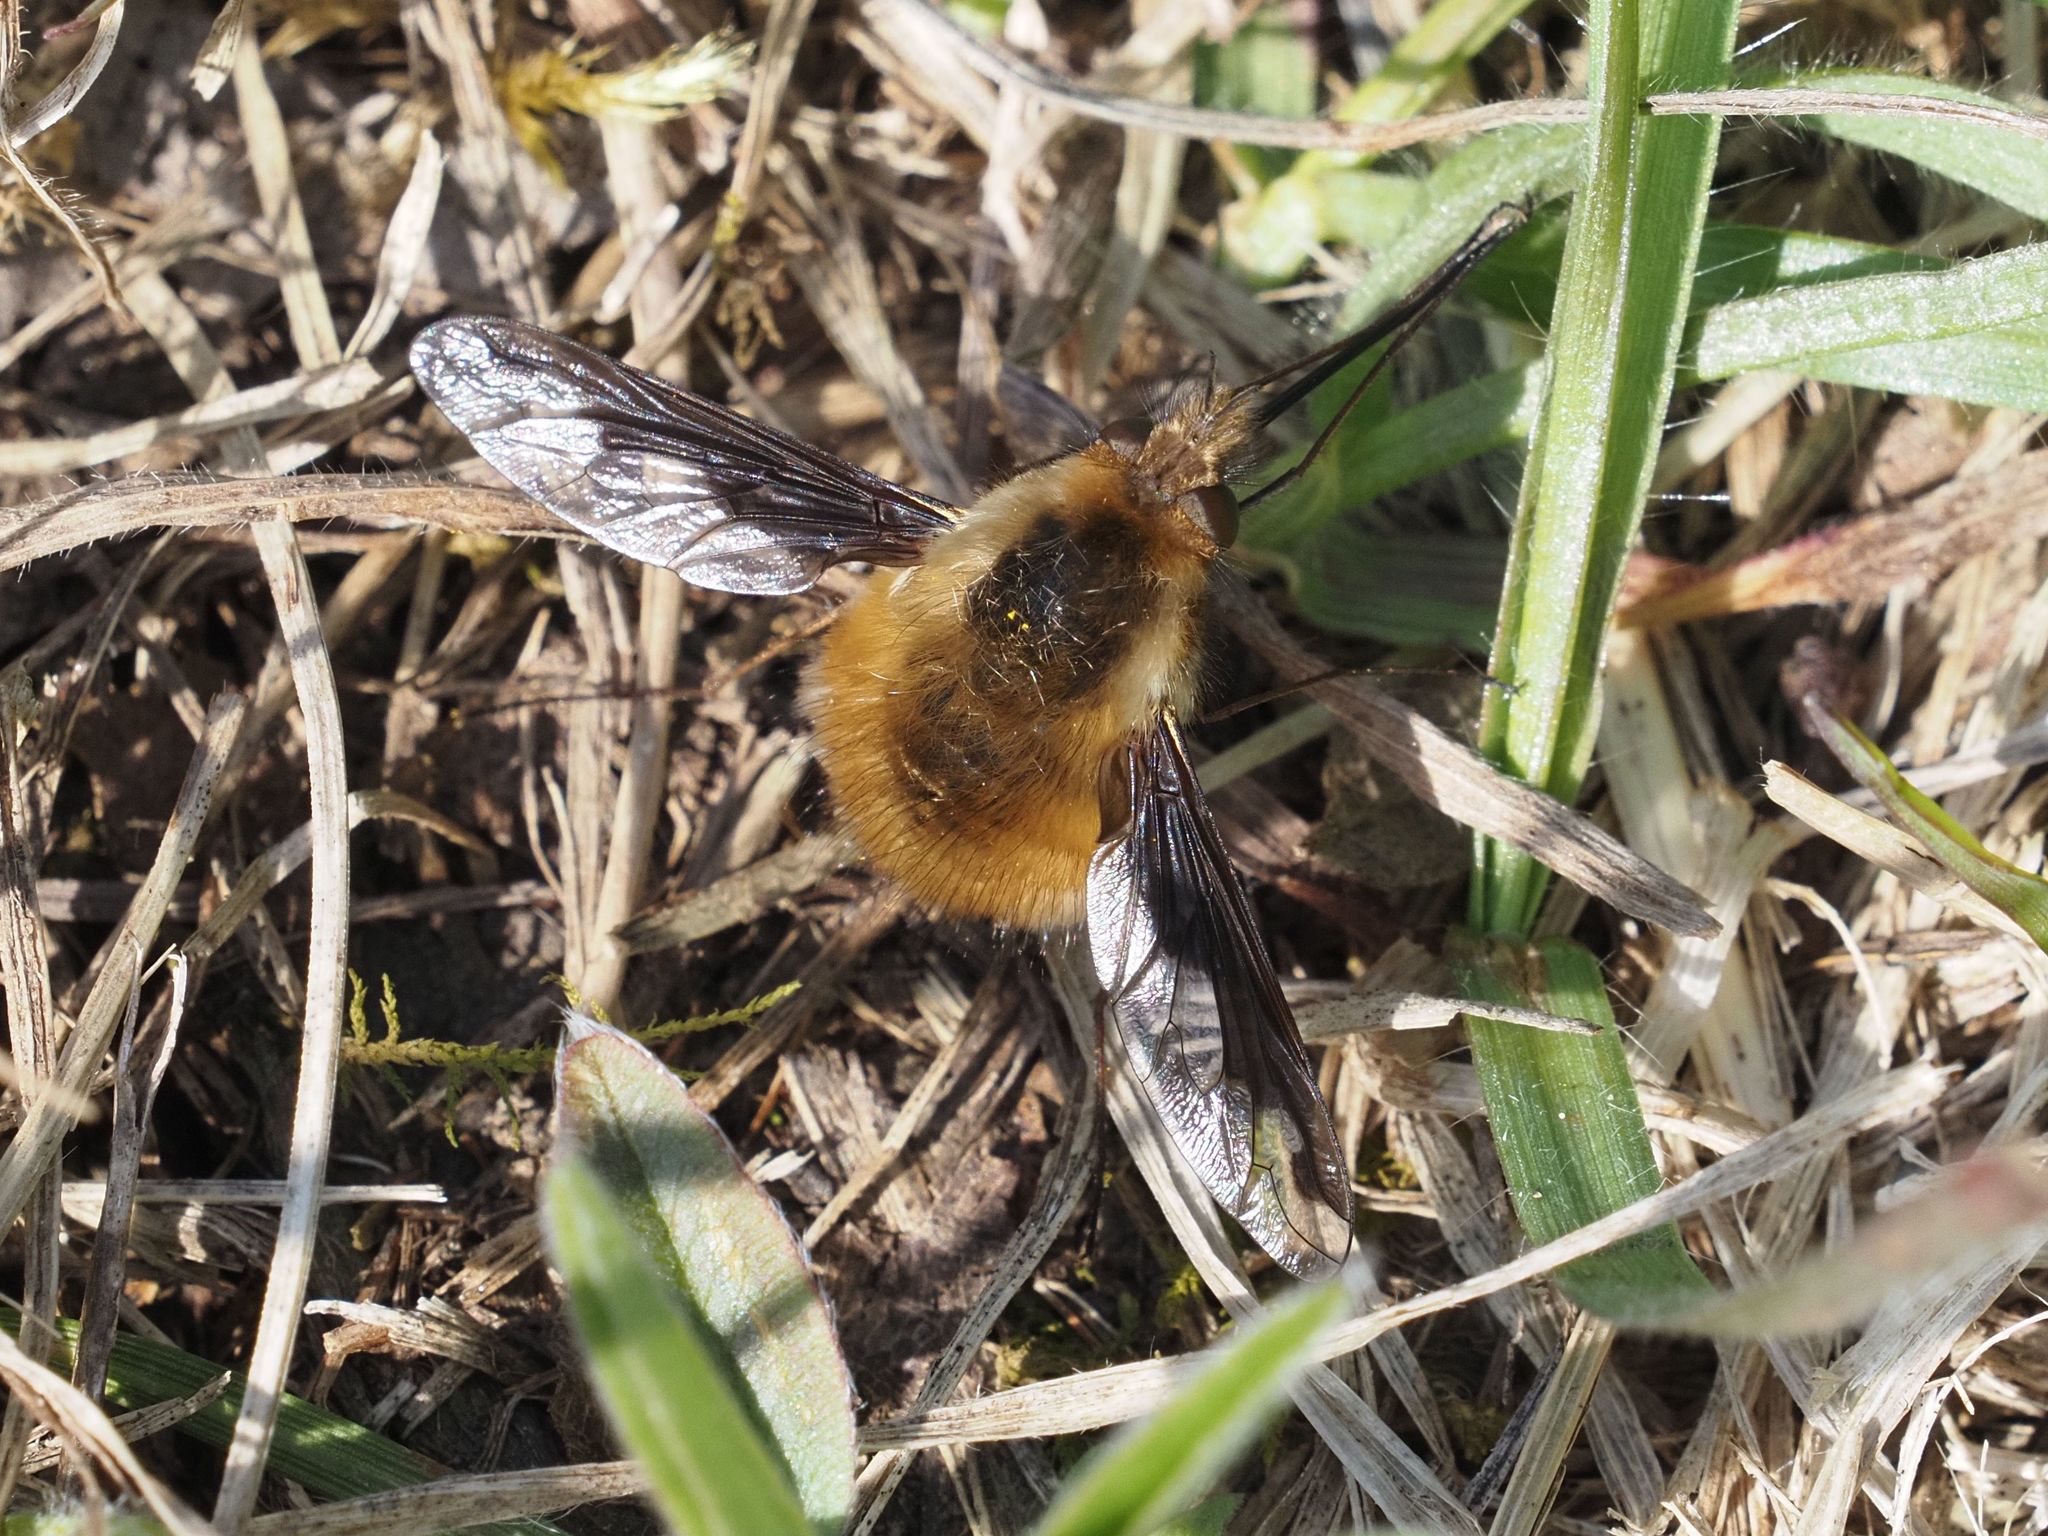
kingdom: Animalia
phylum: Arthropoda
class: Insecta
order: Diptera
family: Bombyliidae
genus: Bombylius
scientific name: Bombylius major
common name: Bee fly
